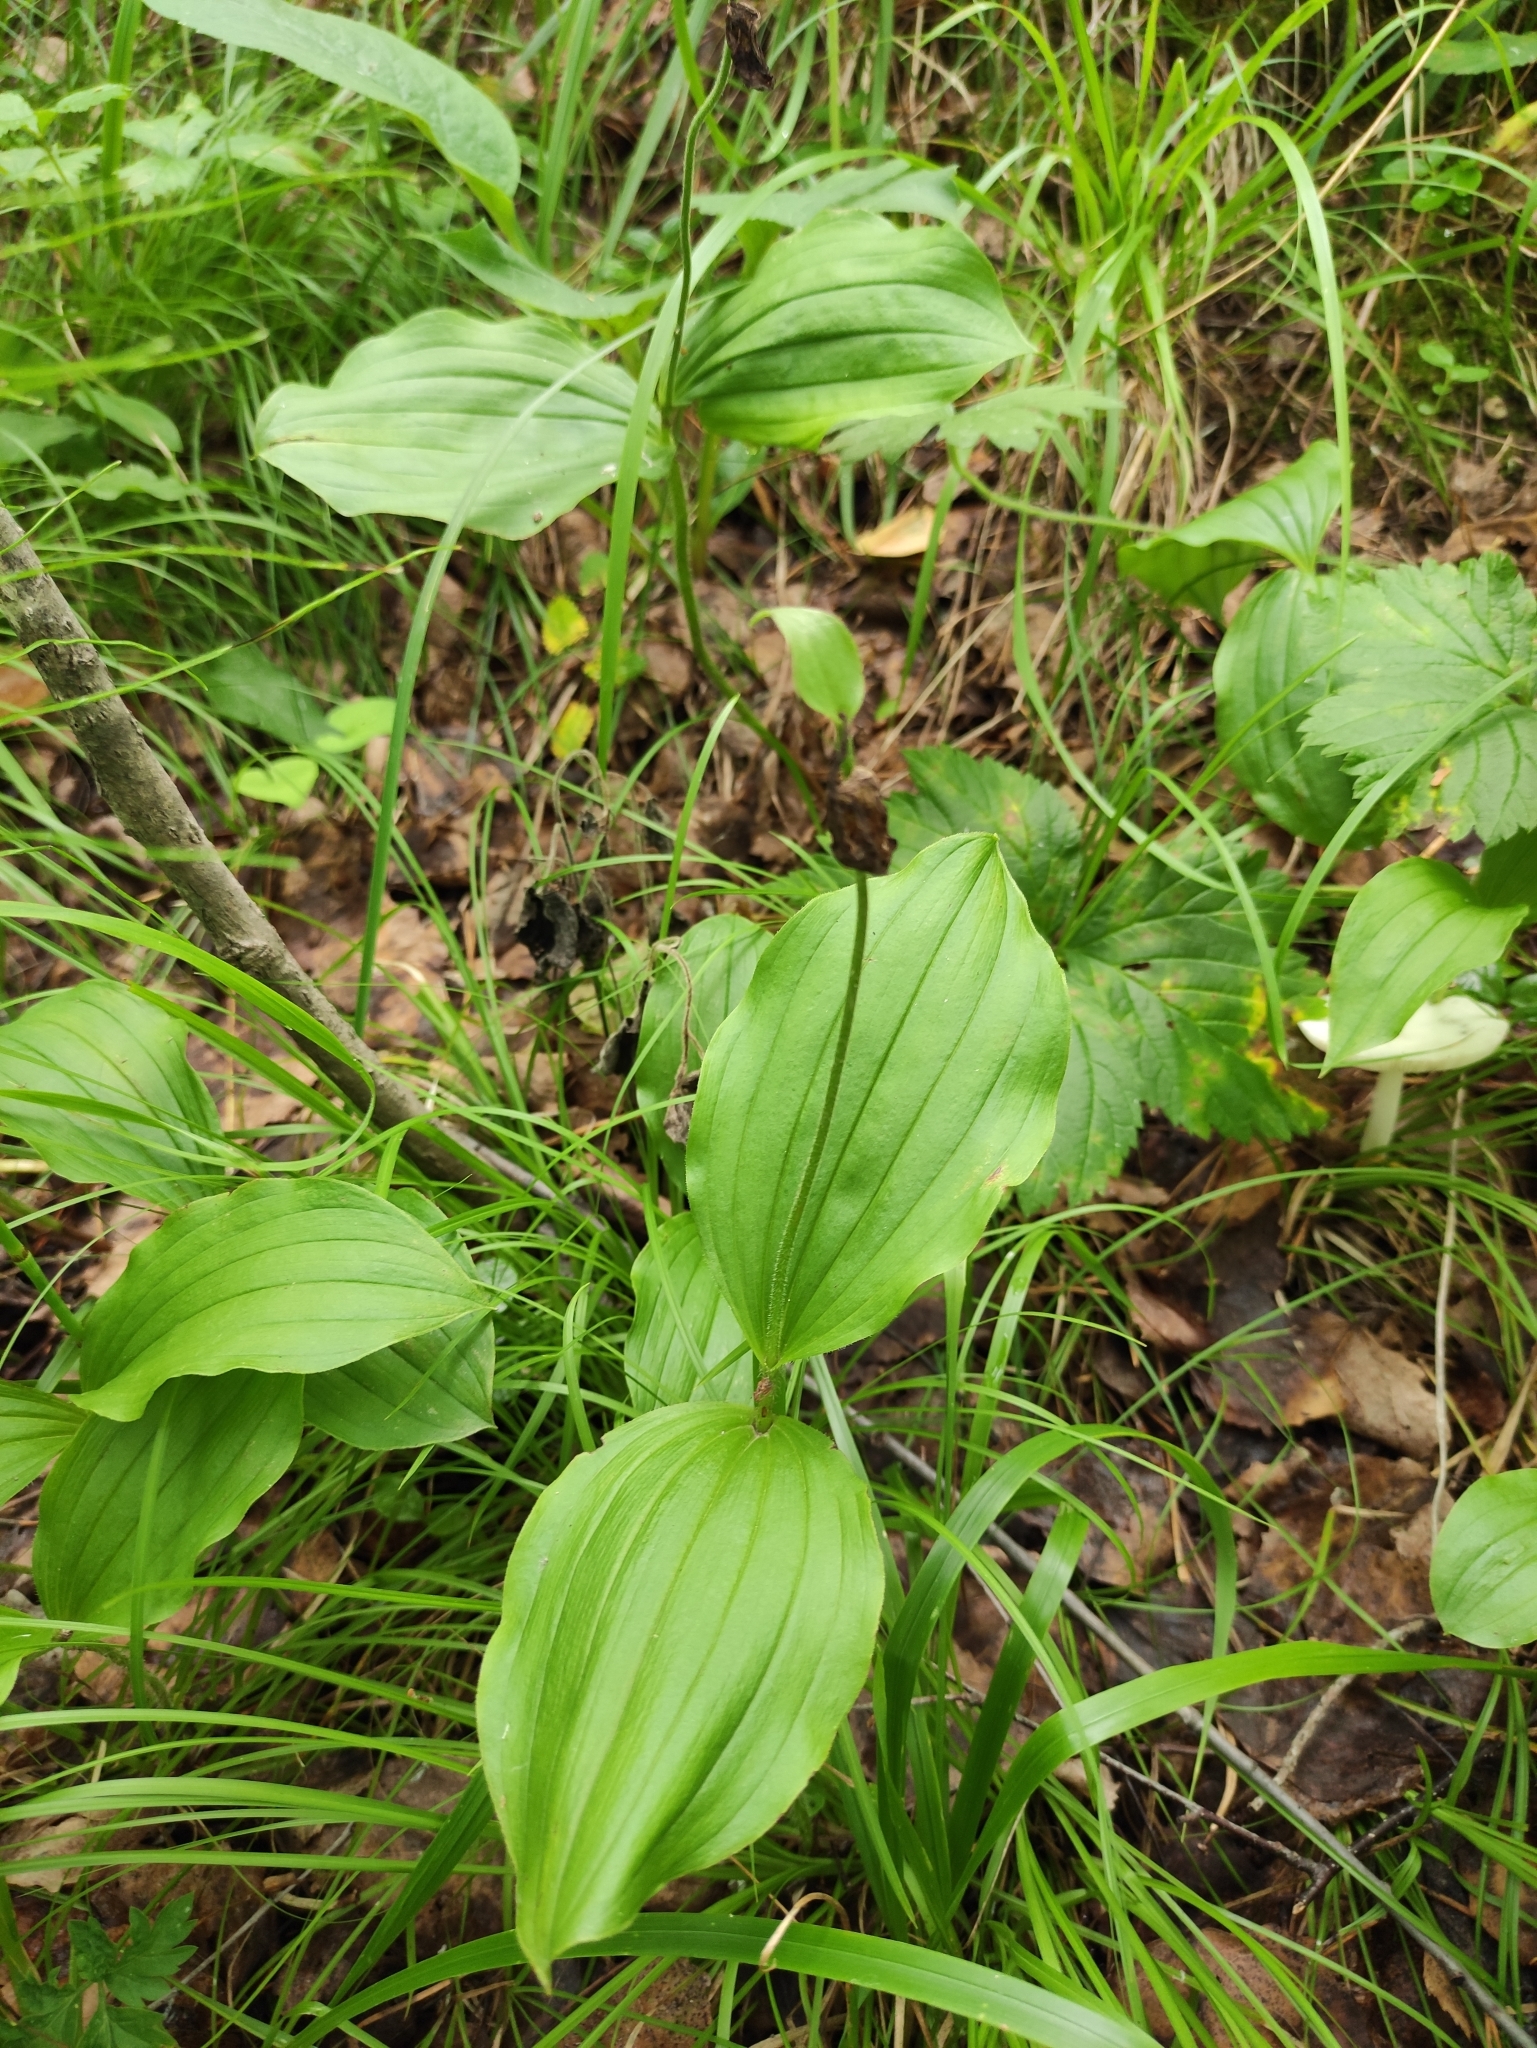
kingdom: Plantae
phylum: Tracheophyta
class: Liliopsida
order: Asparagales
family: Orchidaceae
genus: Cypripedium
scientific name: Cypripedium guttatum
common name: Pink lady slipper
